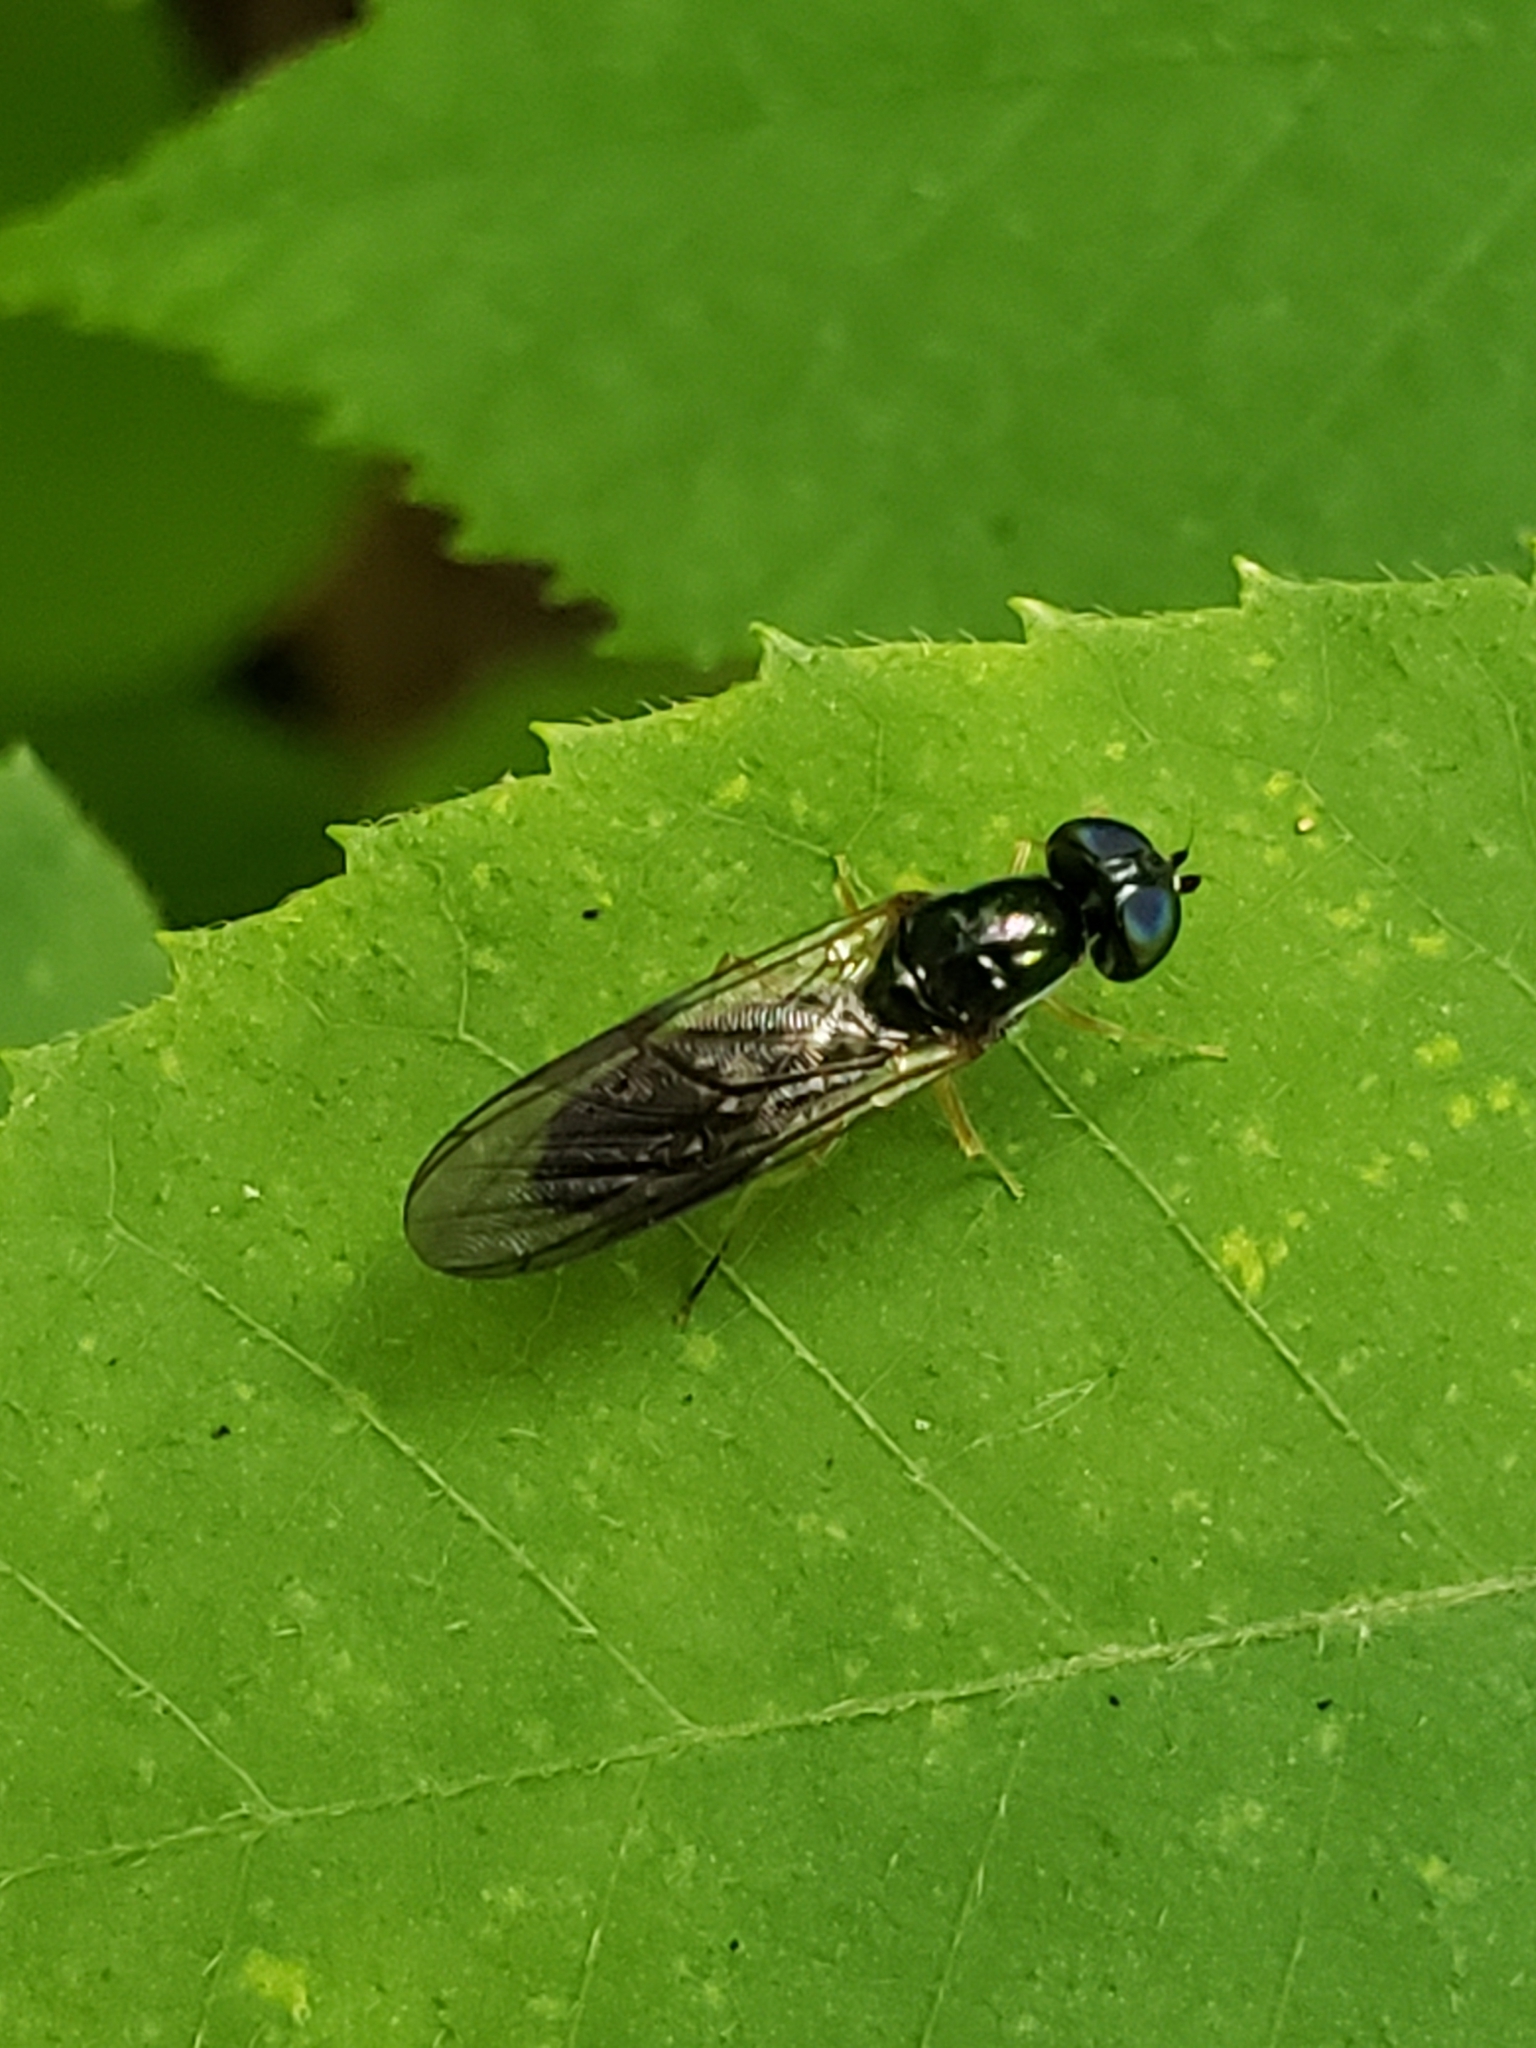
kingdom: Animalia
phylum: Arthropoda
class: Insecta
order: Diptera
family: Stratiomyidae
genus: Sargus
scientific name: Sargus decorus
